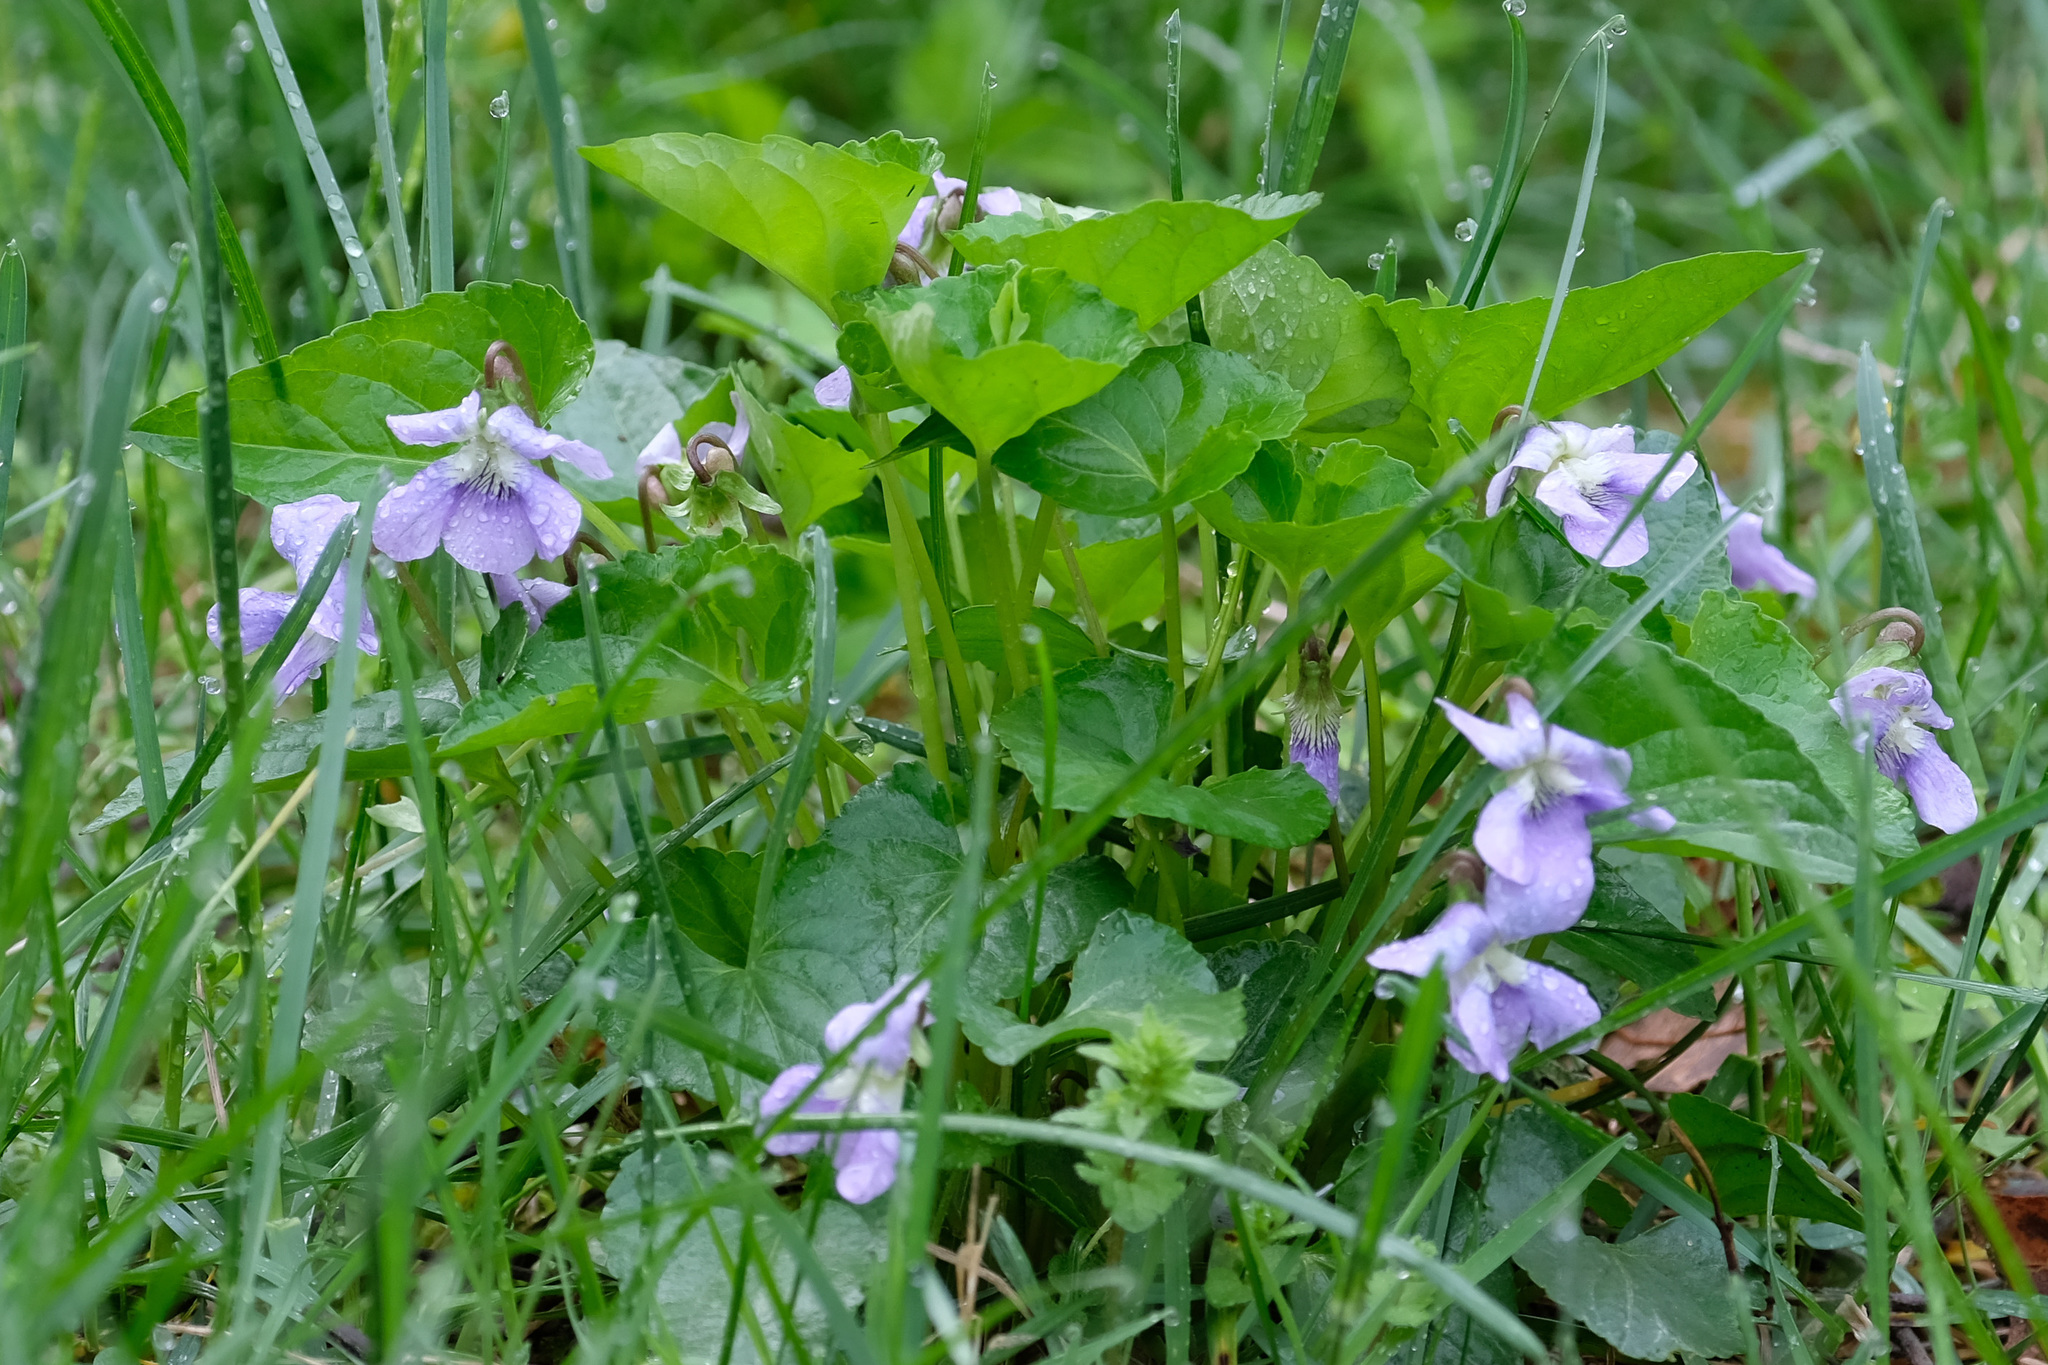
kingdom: Plantae
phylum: Tracheophyta
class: Magnoliopsida
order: Malpighiales
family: Violaceae
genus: Viola
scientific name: Viola sororia
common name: Dooryard violet
